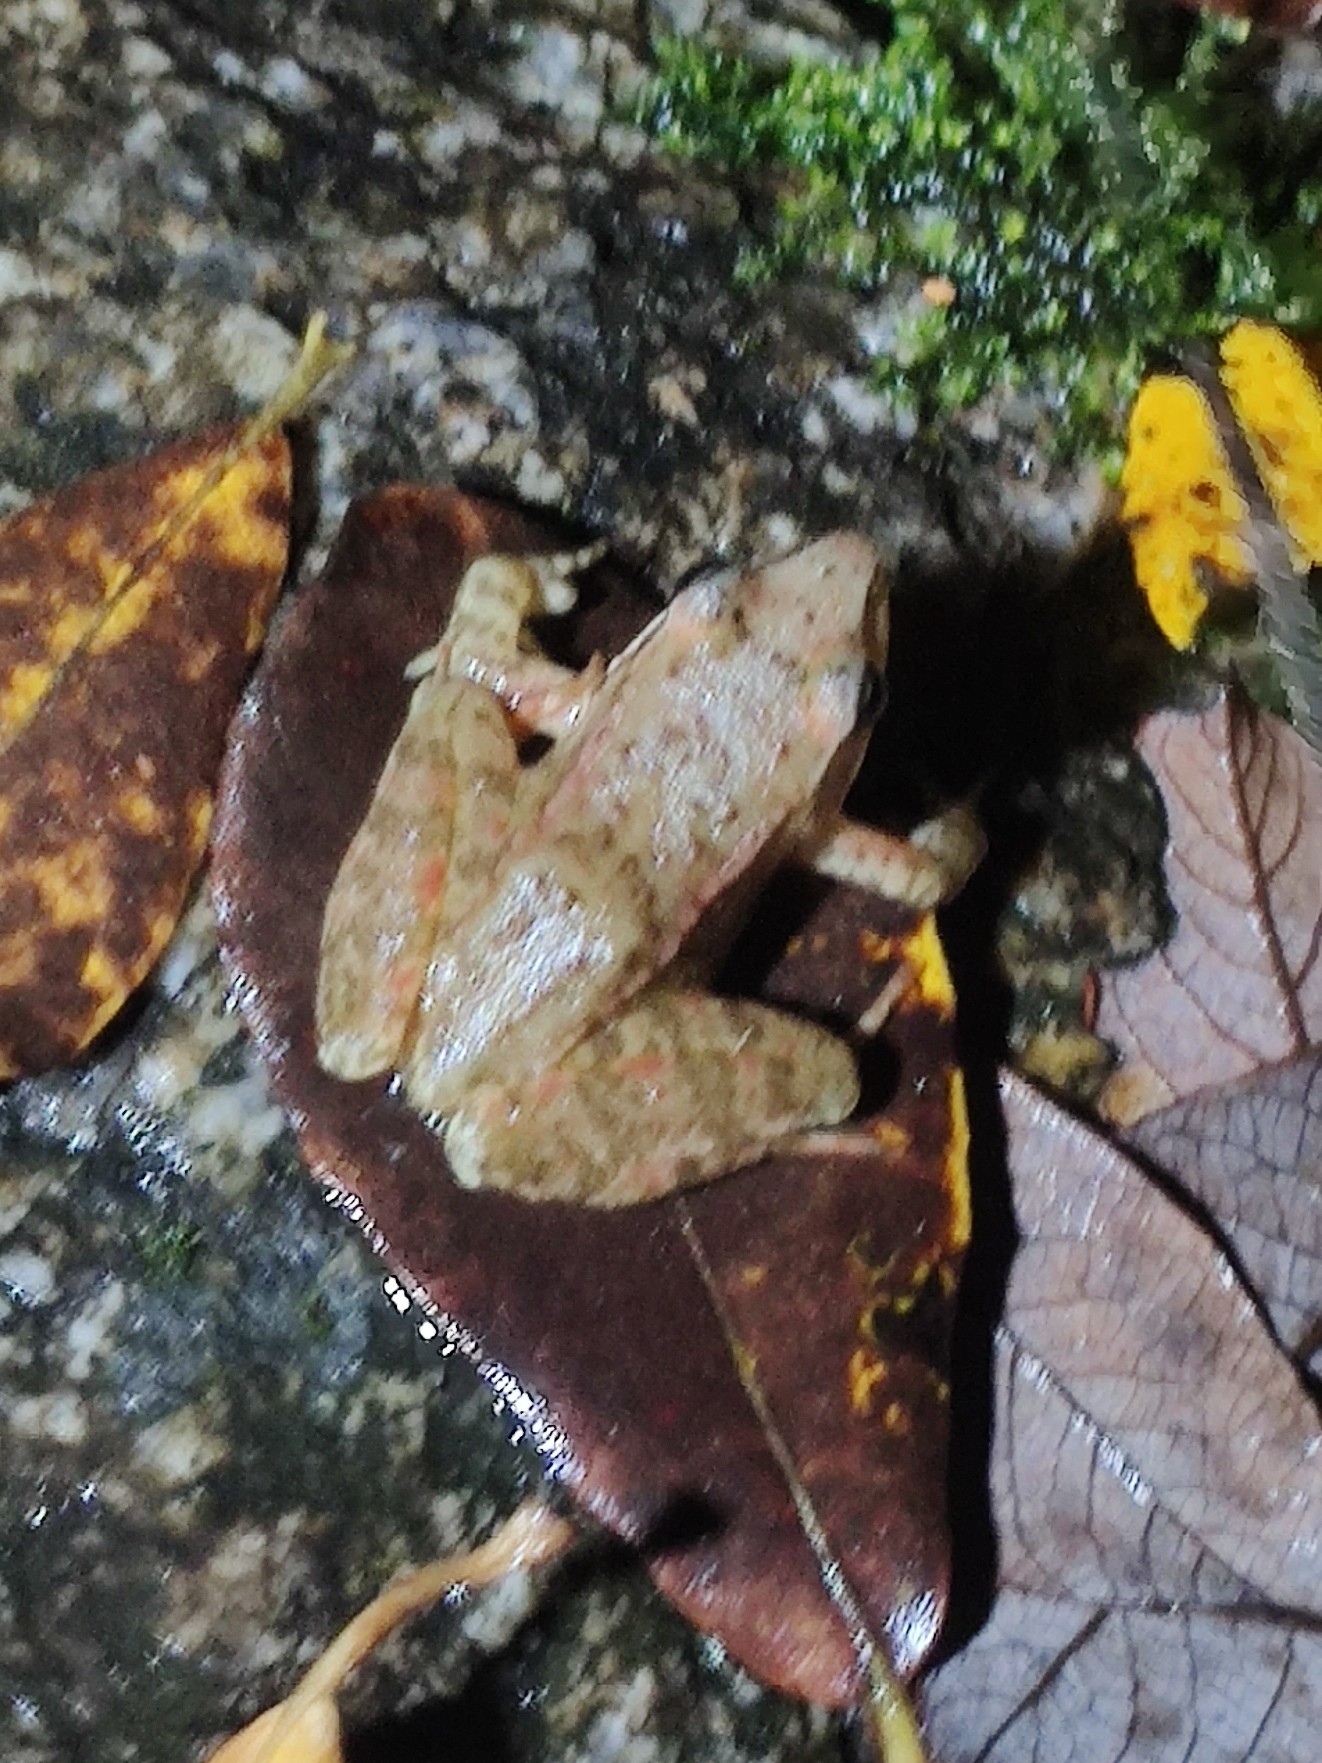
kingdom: Animalia
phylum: Chordata
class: Amphibia
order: Anura
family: Ranidae
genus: Rana
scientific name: Rana iberica
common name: Iberian frog
